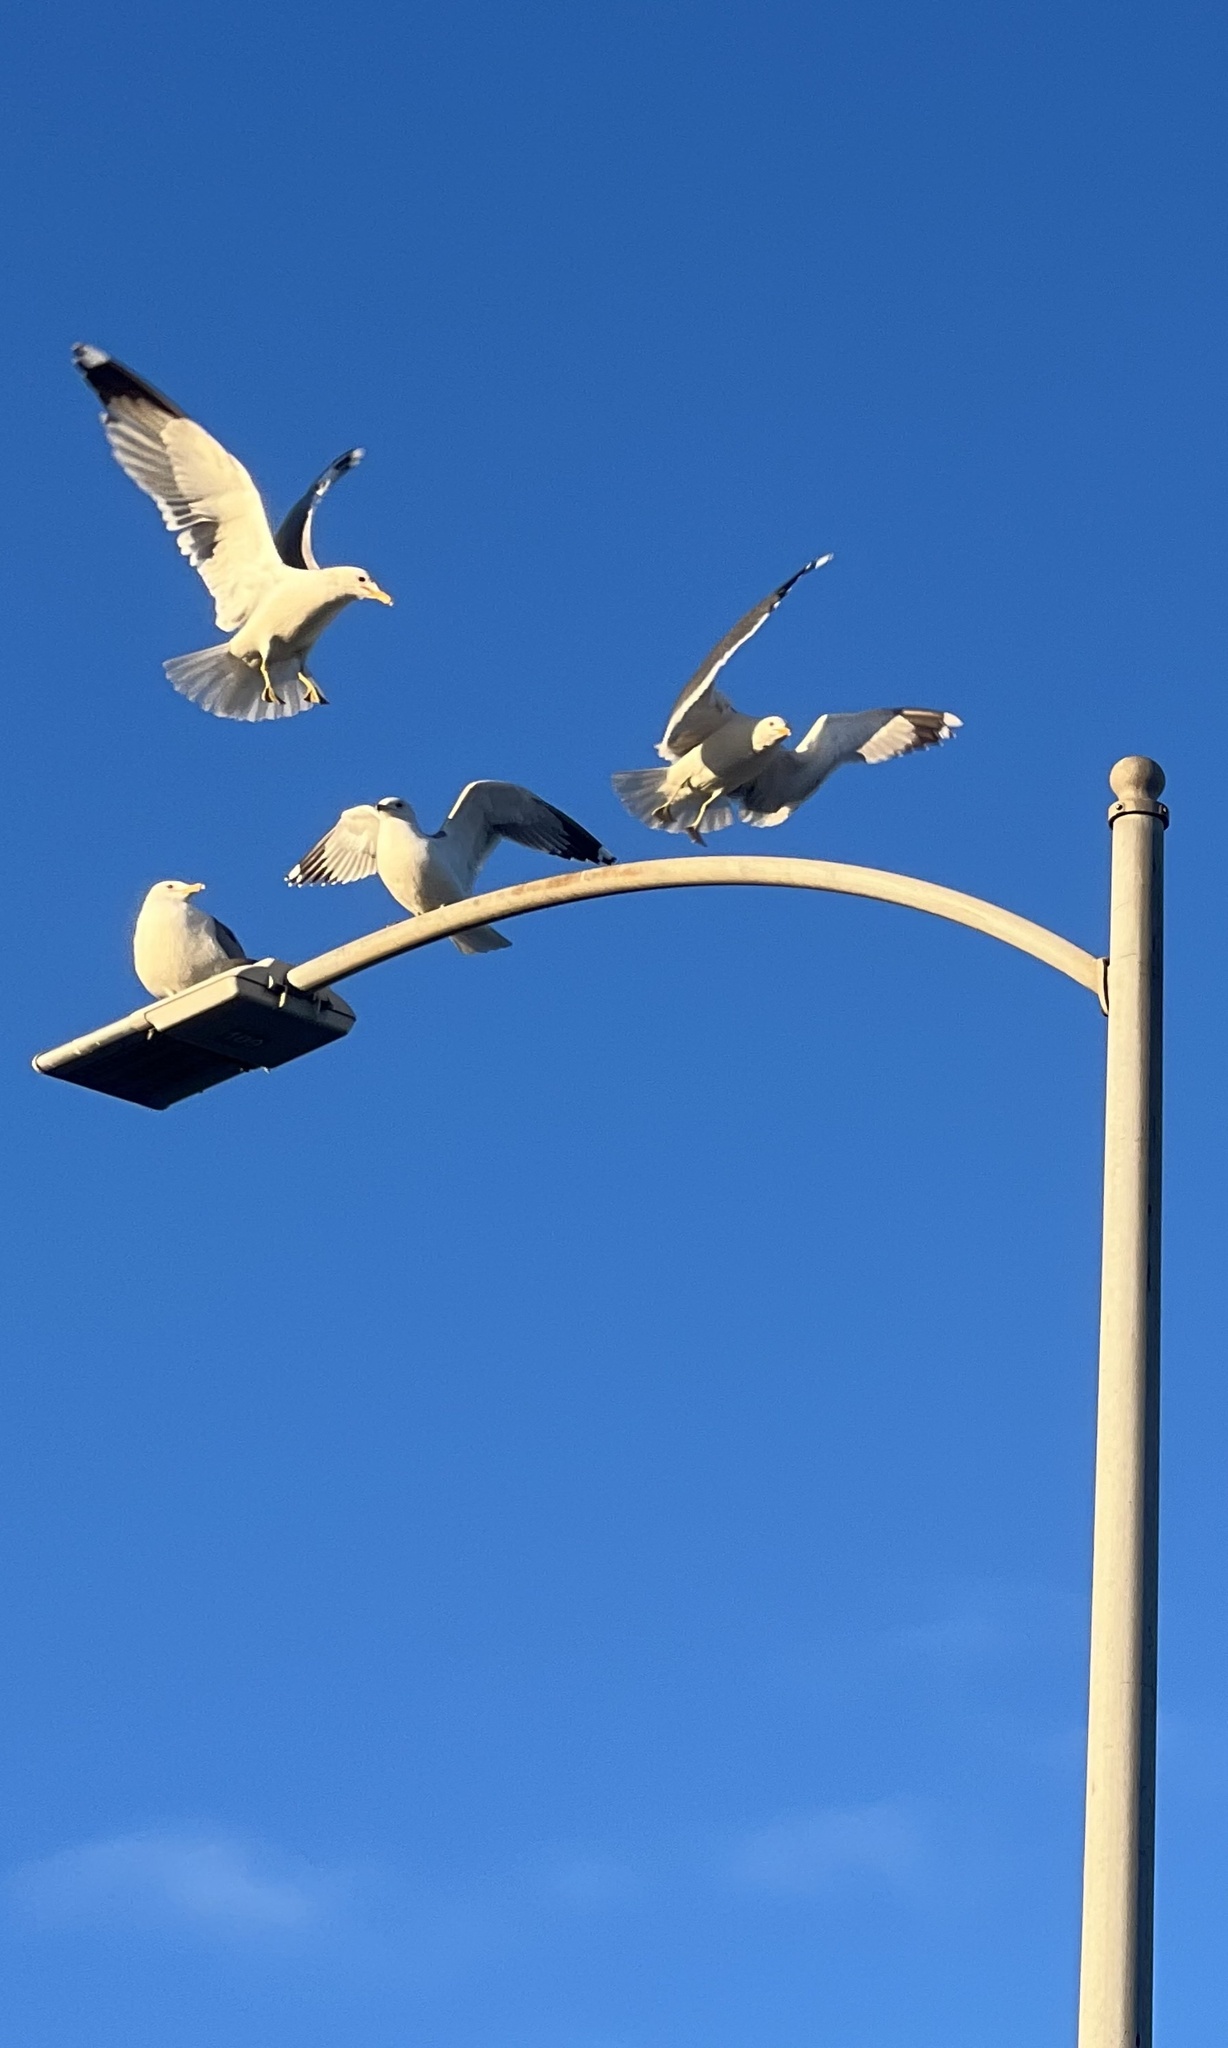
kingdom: Animalia
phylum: Chordata
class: Aves
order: Charadriiformes
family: Laridae
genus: Larus
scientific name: Larus californicus
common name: California gull
